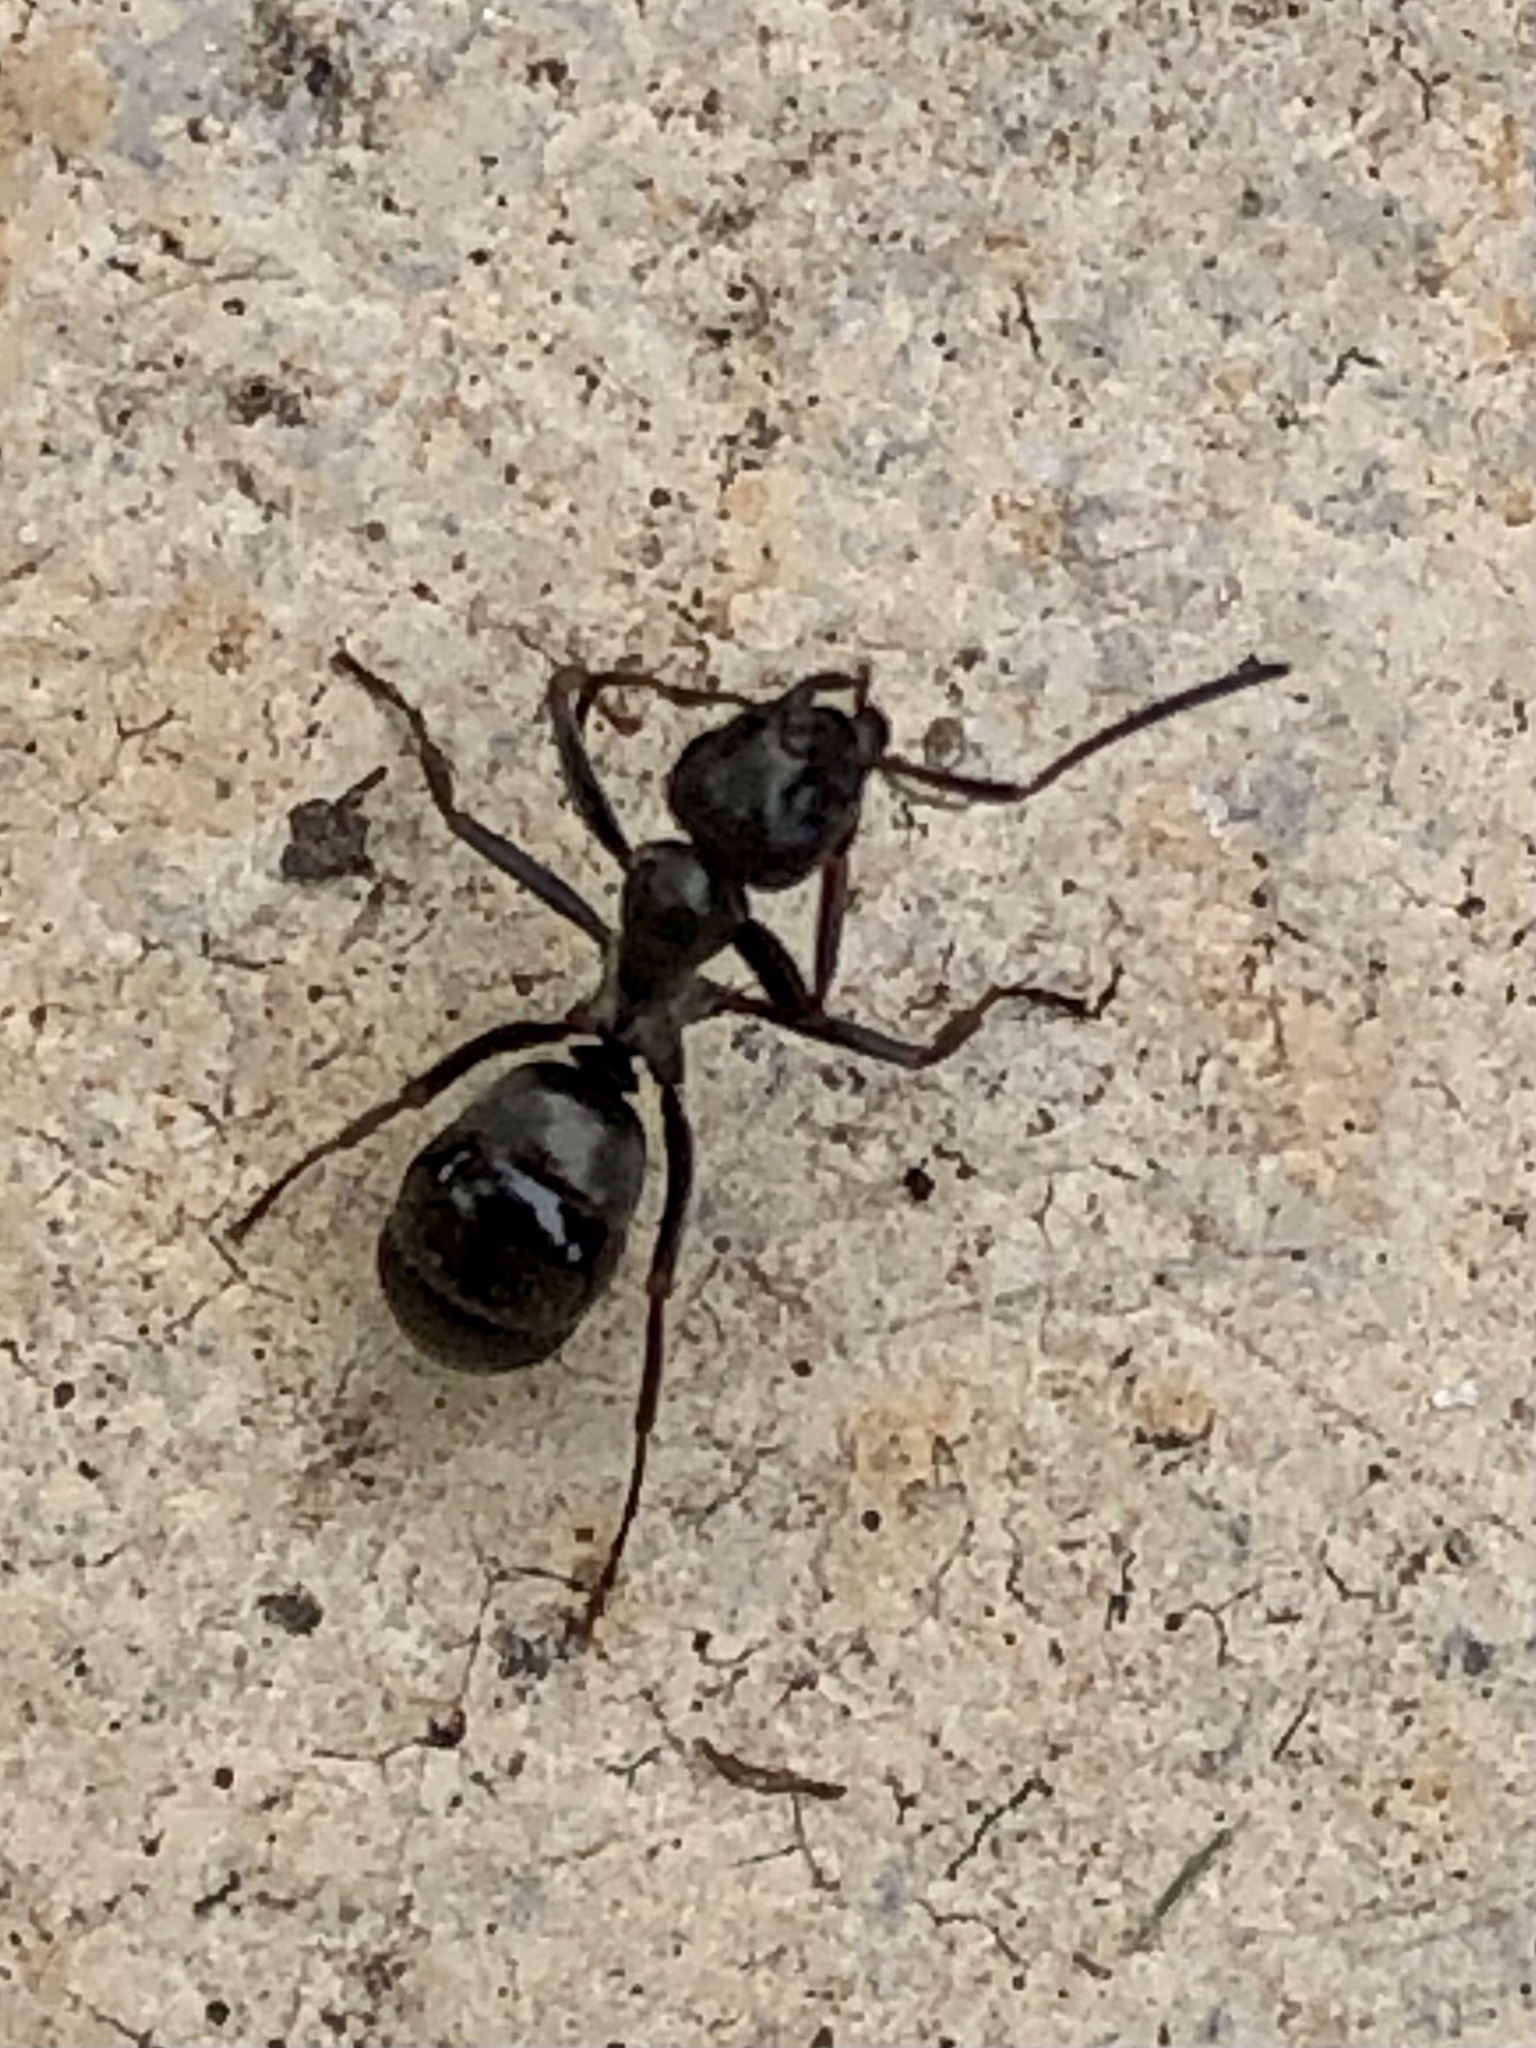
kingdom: Animalia
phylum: Arthropoda
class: Insecta
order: Hymenoptera
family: Formicidae
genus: Formica
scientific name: Formica subsericea
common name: Silky field ant
